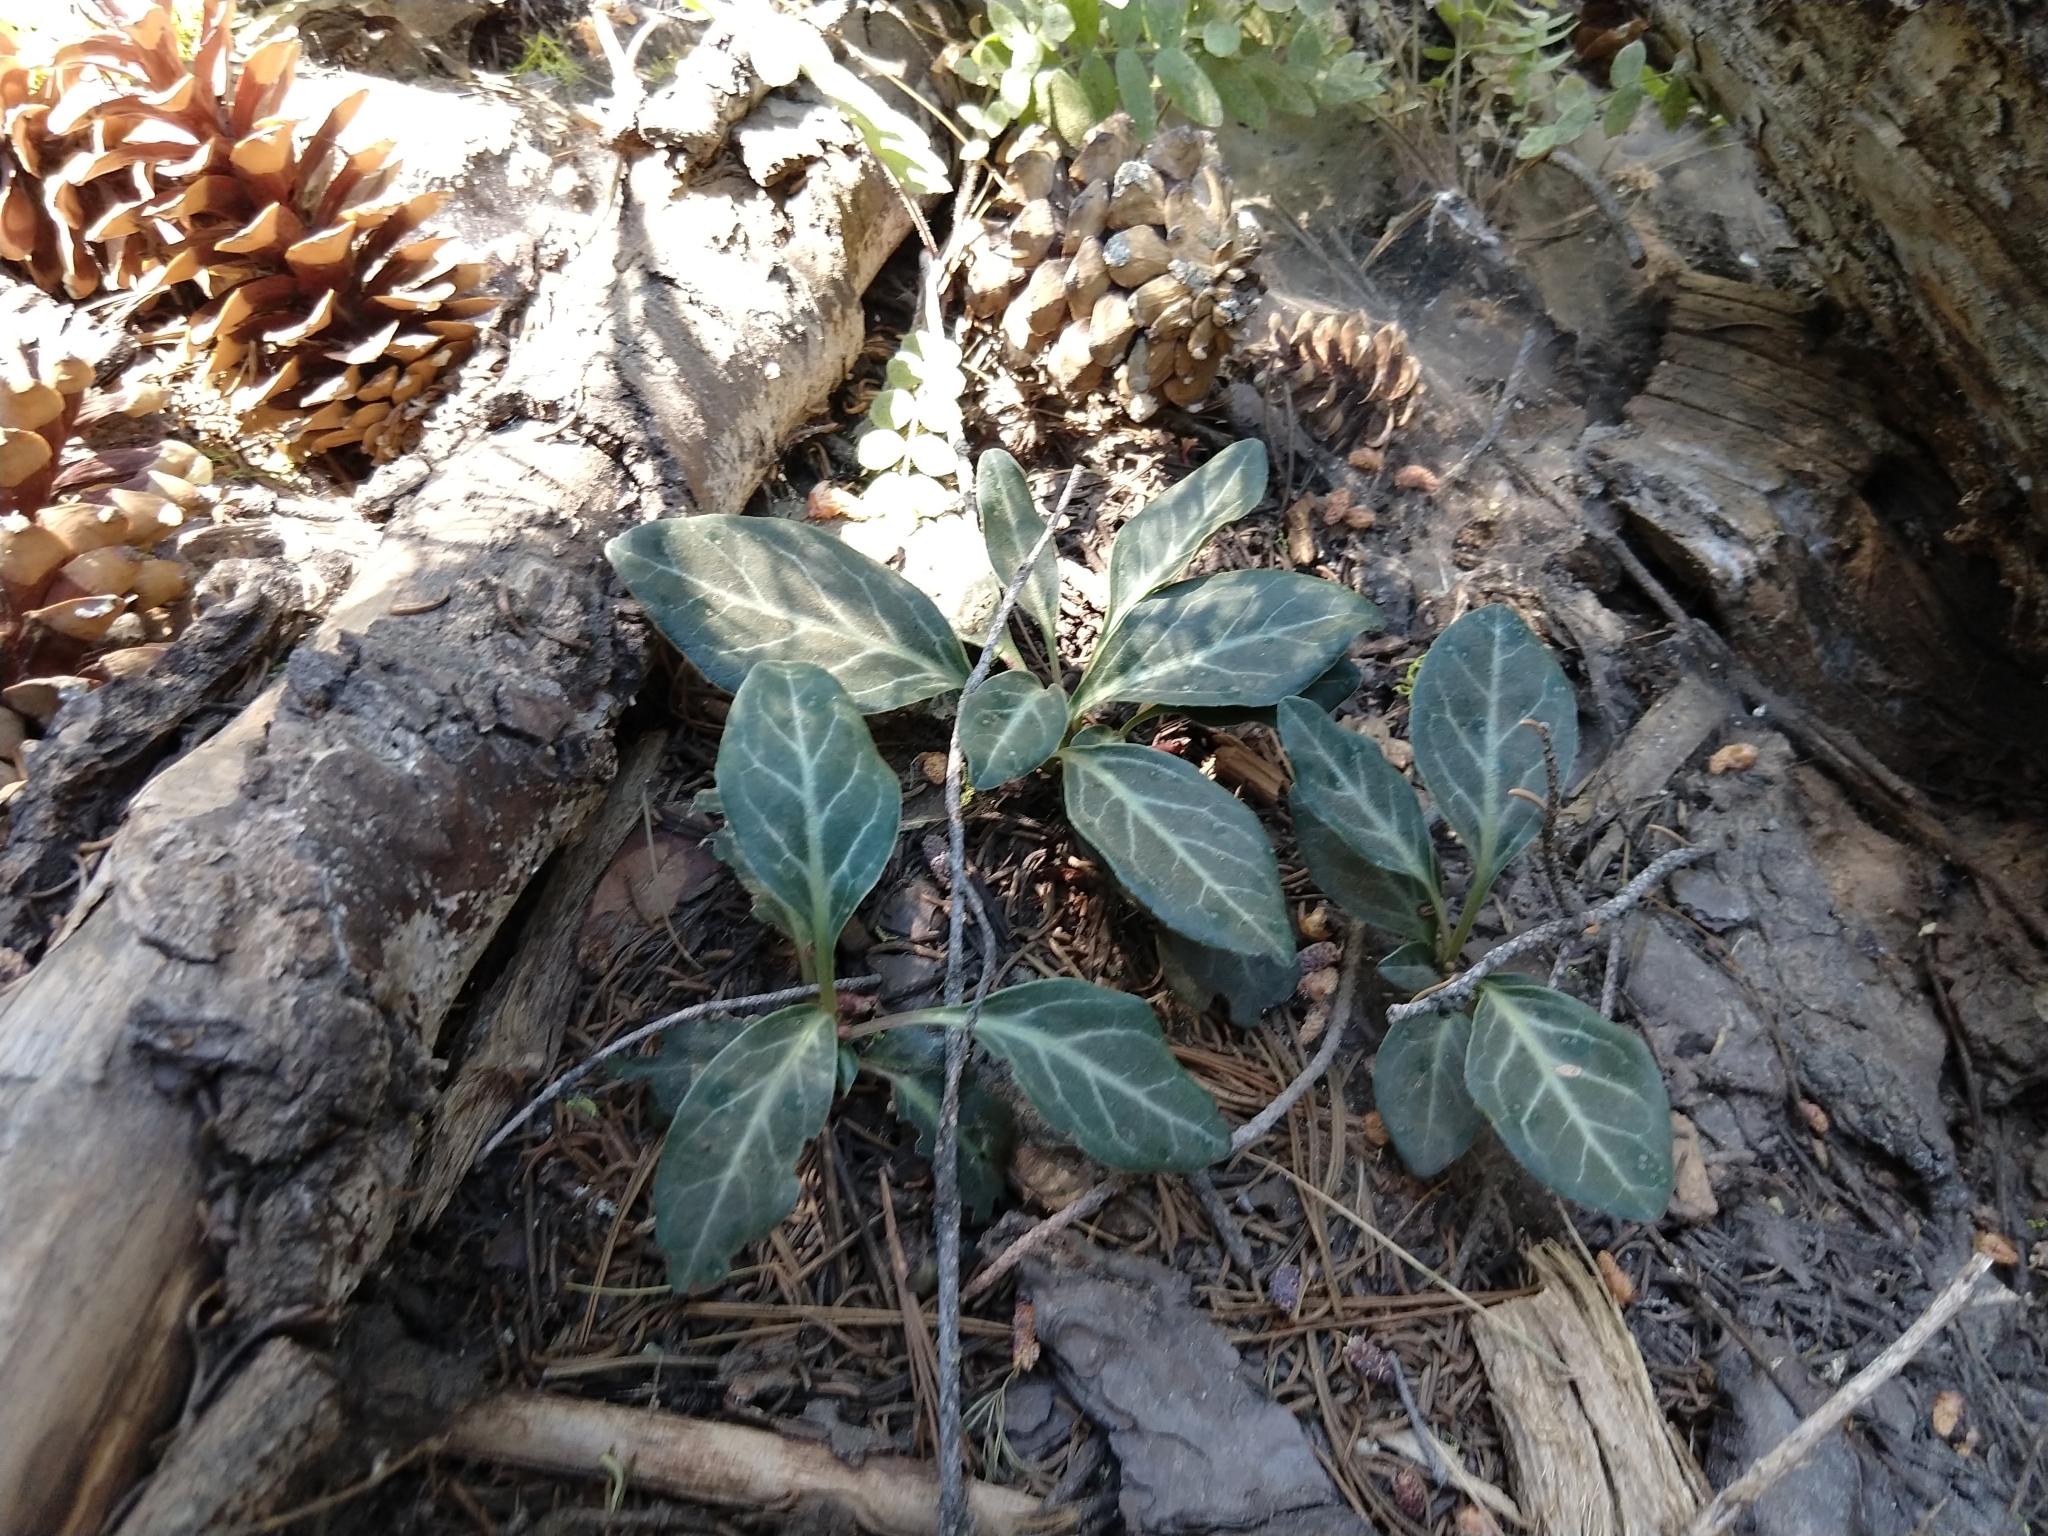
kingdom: Plantae
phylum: Tracheophyta
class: Magnoliopsida
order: Ericales
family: Ericaceae
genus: Pyrola
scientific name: Pyrola picta
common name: White-vein wintergreen
